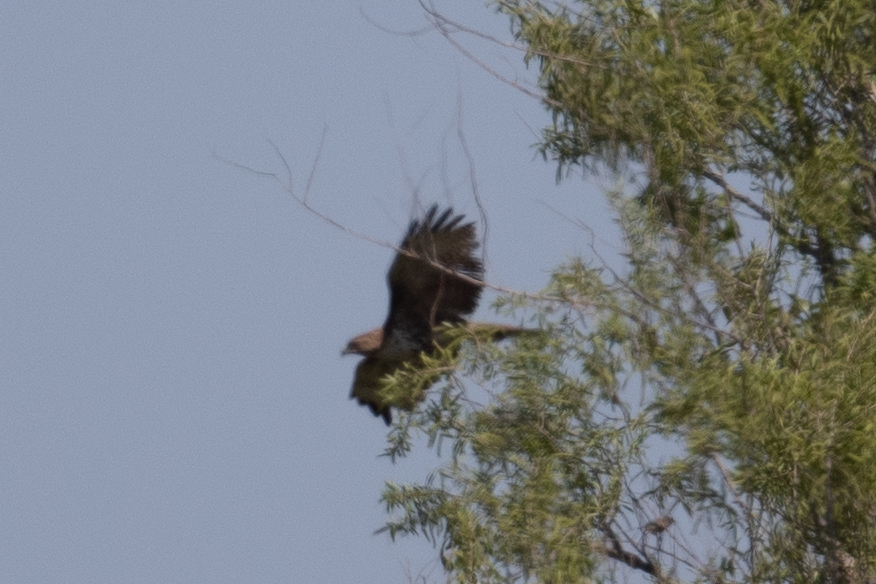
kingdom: Animalia
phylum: Chordata
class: Aves
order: Accipitriformes
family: Accipitridae
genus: Buteo
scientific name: Buteo jamaicensis
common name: Red-tailed hawk
